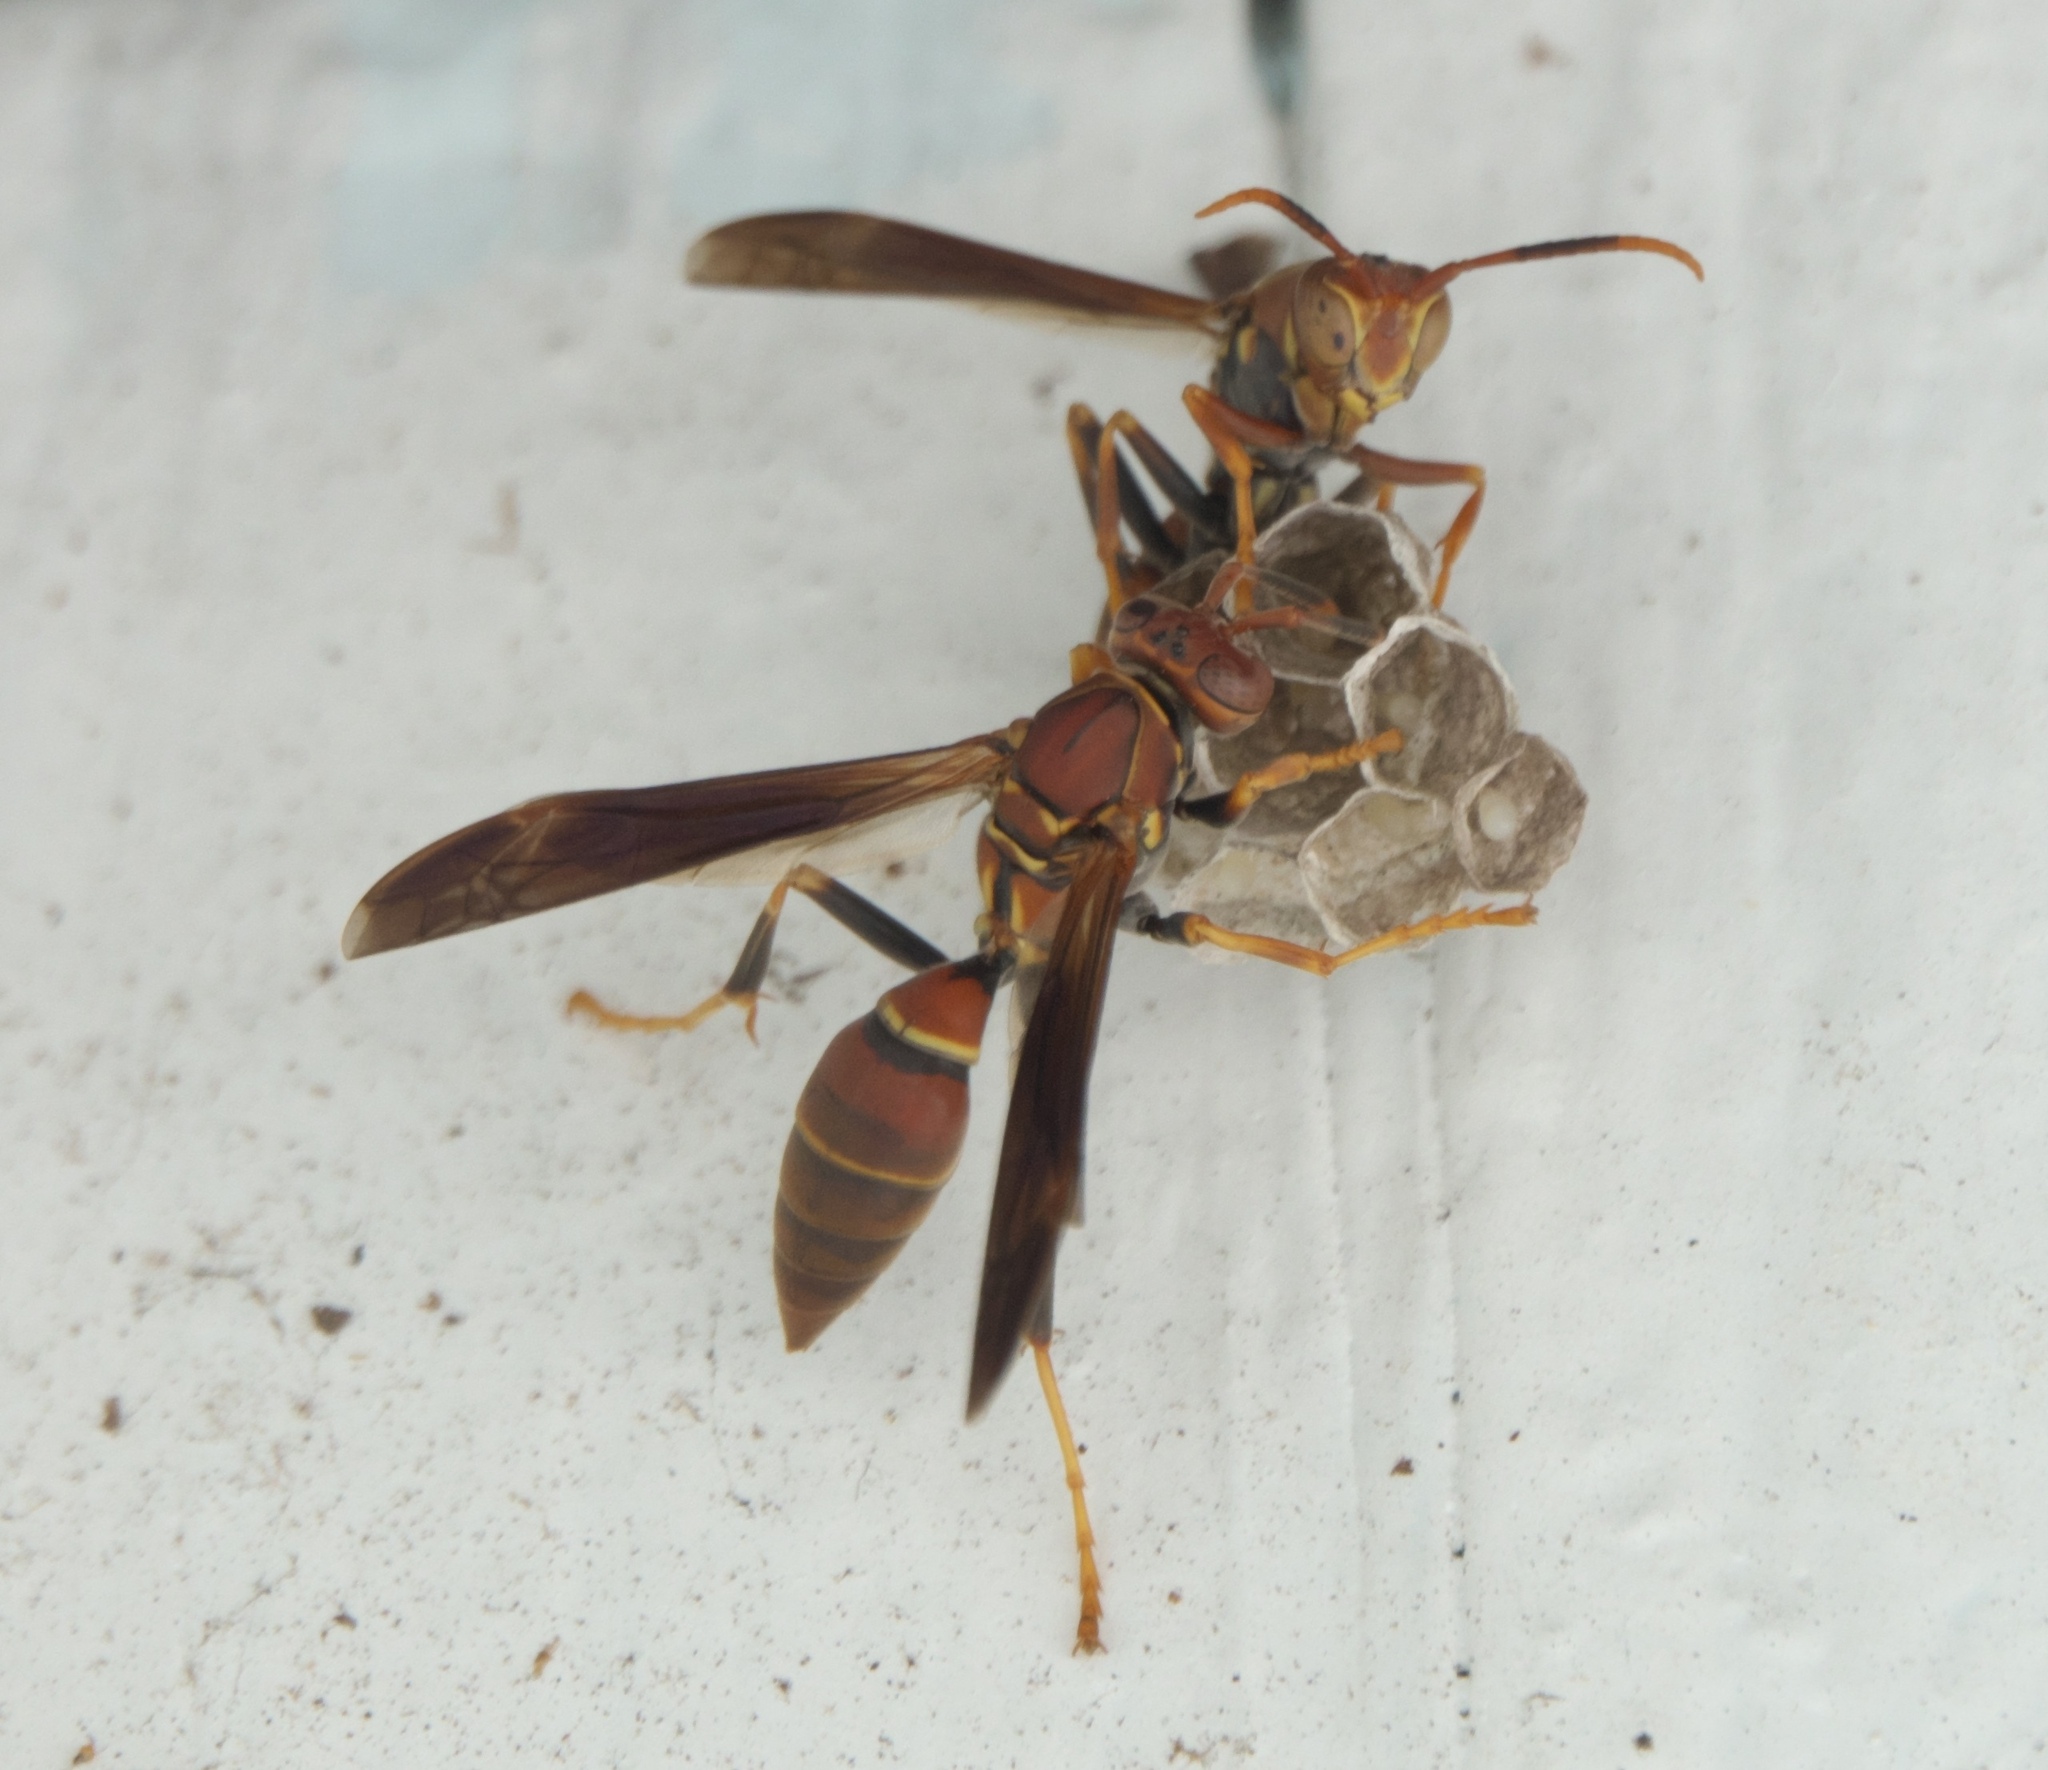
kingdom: Animalia
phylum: Arthropoda
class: Insecta
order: Hymenoptera
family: Eumenidae
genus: Polistes
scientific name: Polistes dorsalis
